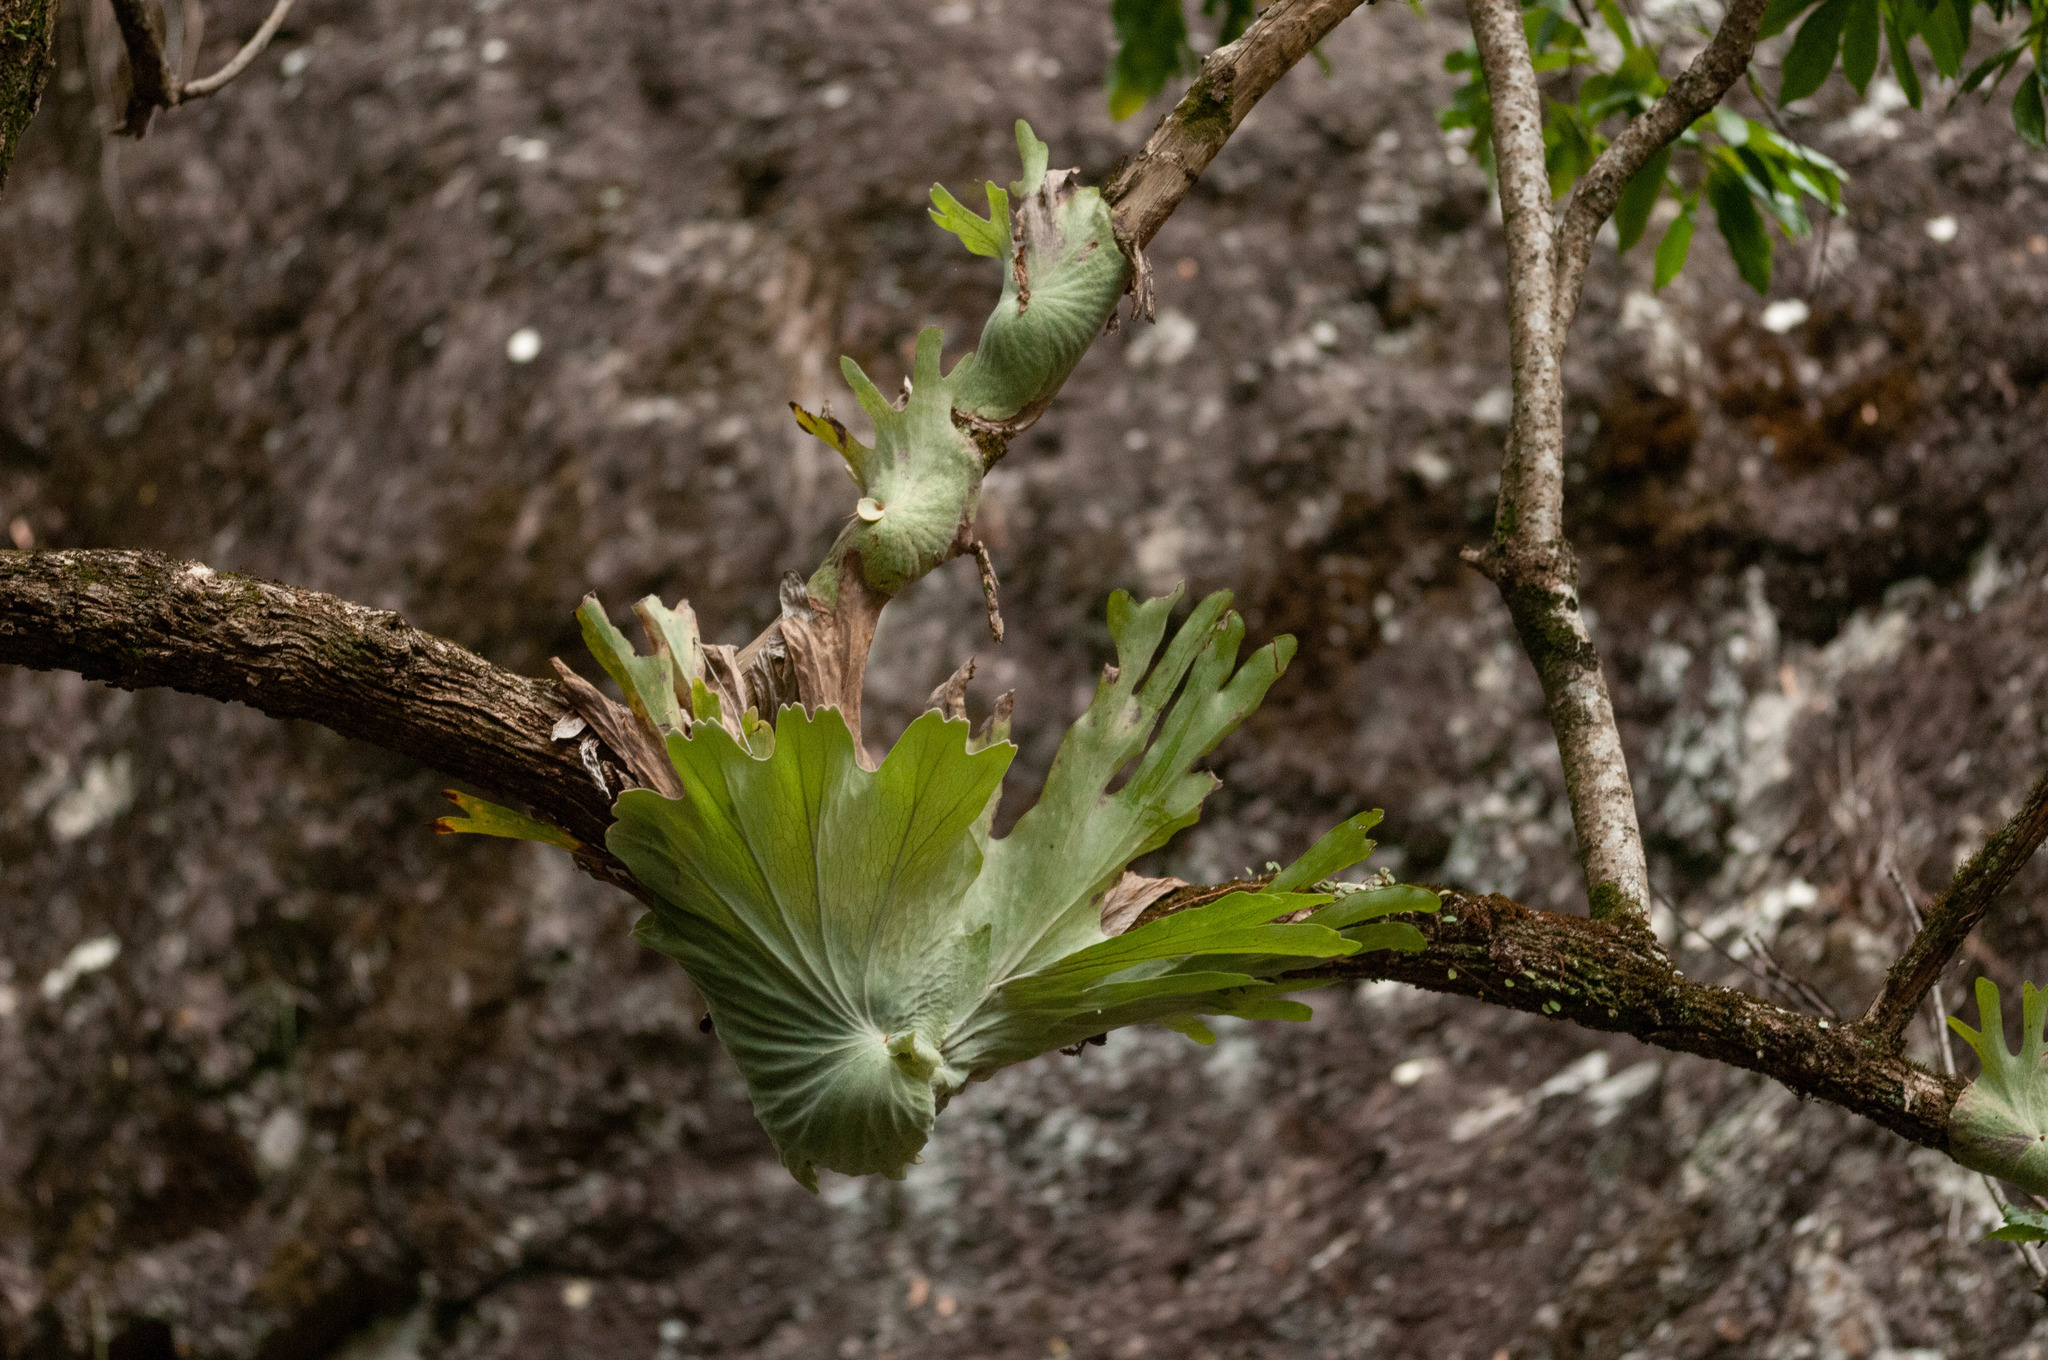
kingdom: Plantae
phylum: Tracheophyta
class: Polypodiopsida
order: Polypodiales
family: Polypodiaceae
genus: Platycerium
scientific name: Platycerium superbum
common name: Staghorn fern
